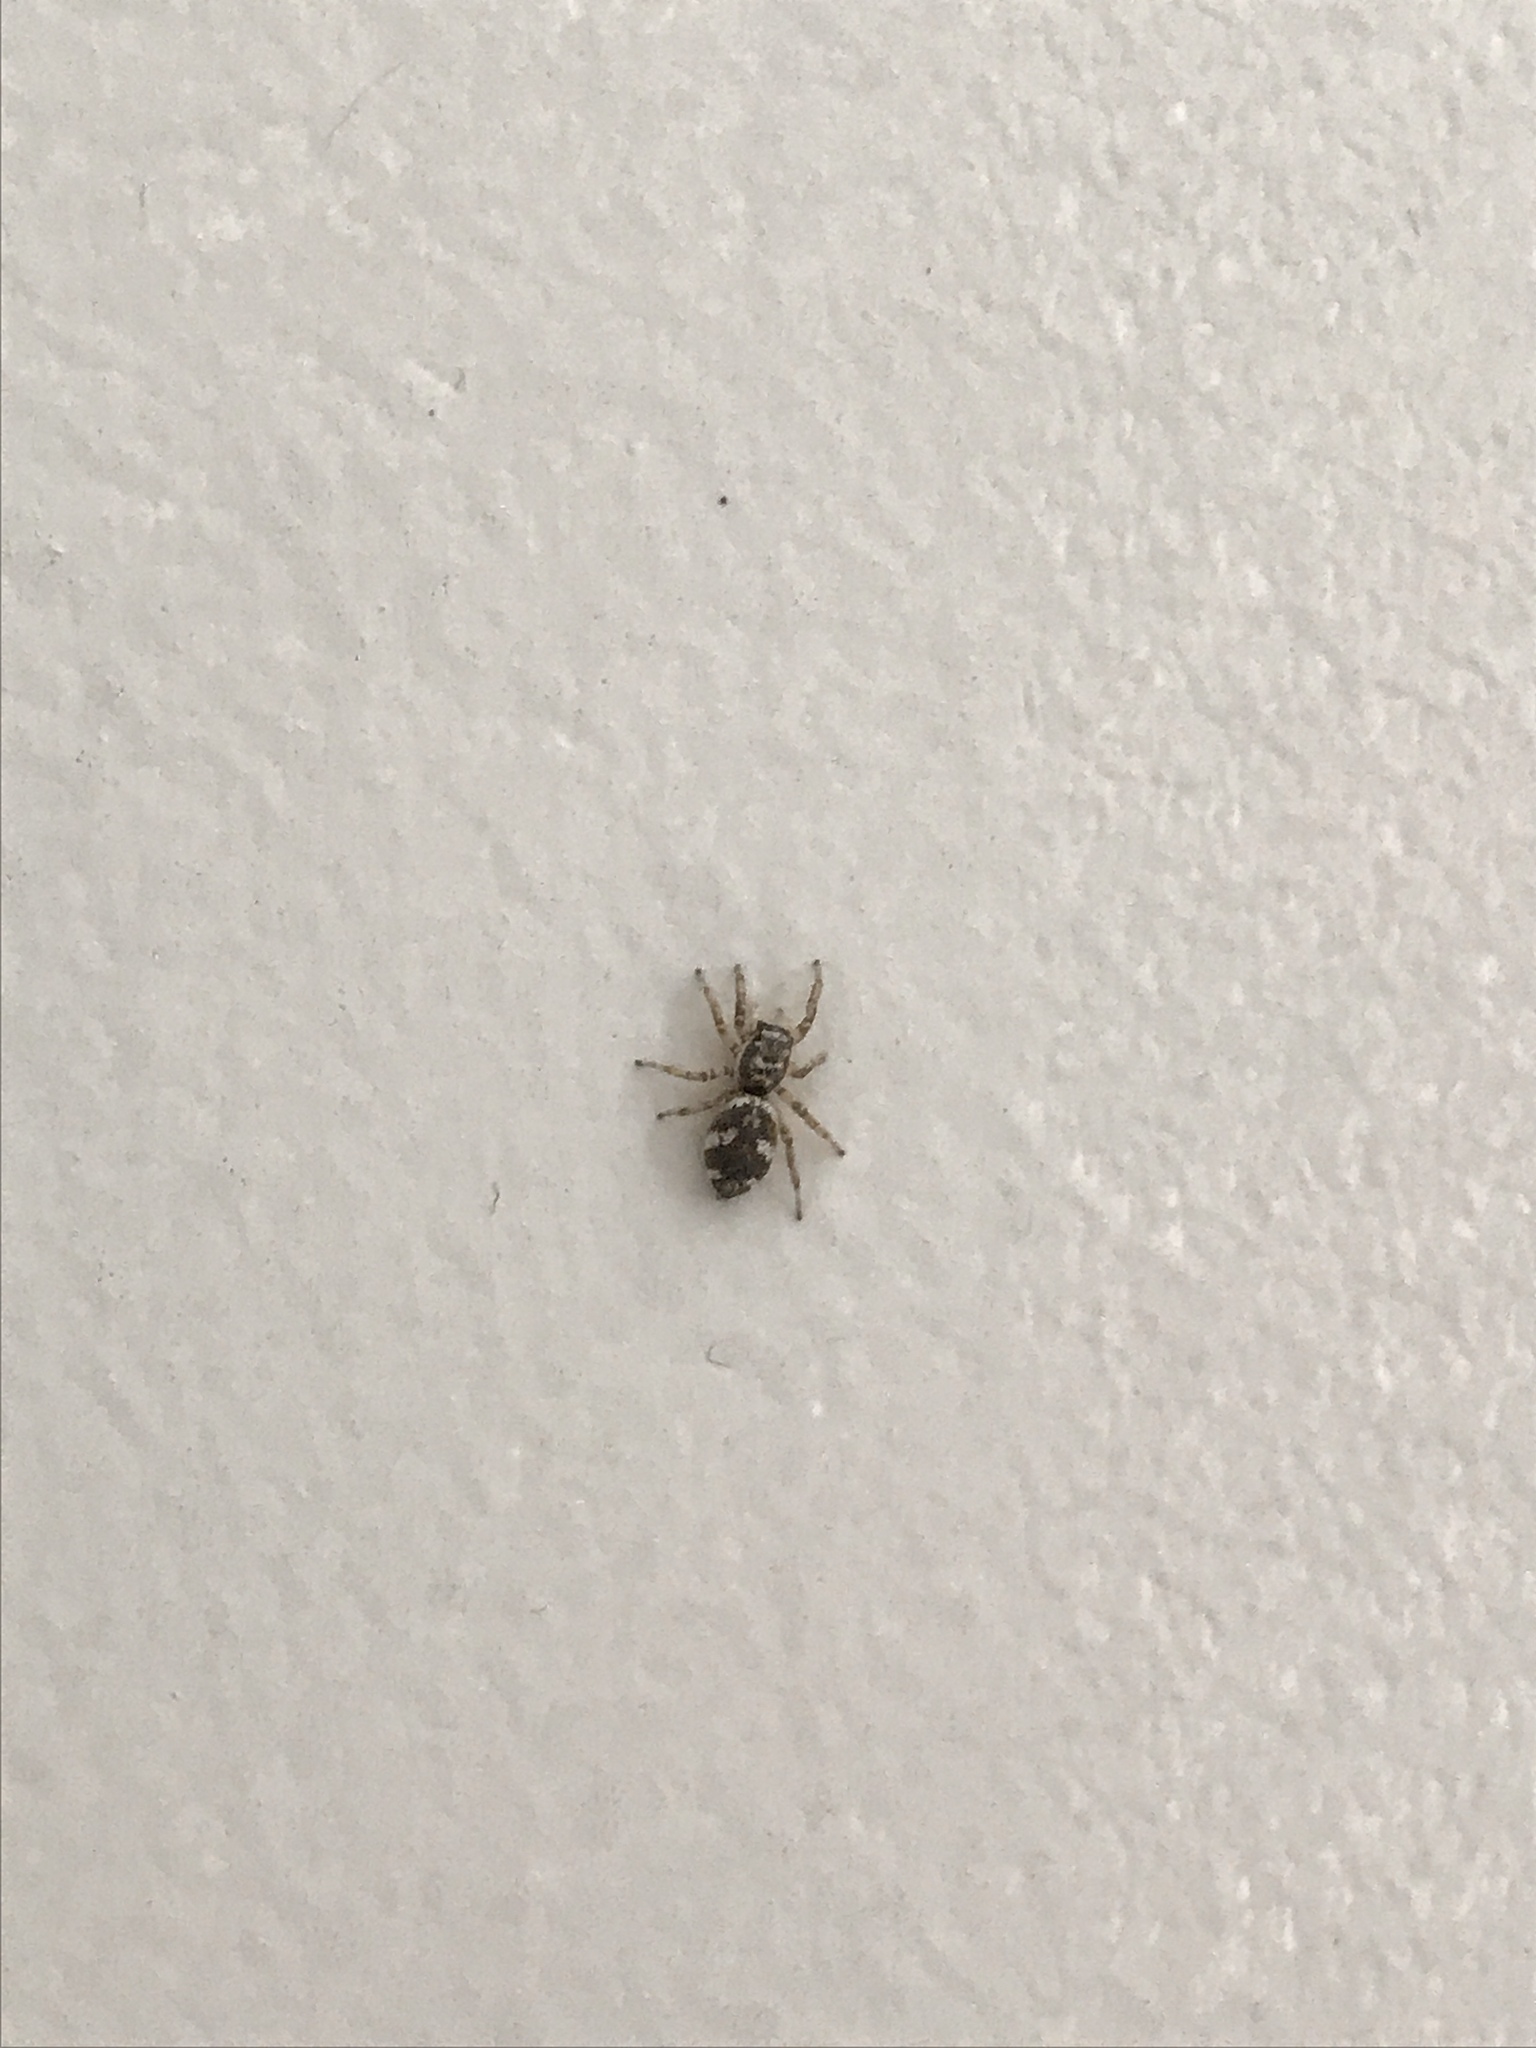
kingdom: Animalia
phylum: Arthropoda
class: Arachnida
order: Araneae
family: Salticidae
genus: Salticus
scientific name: Salticus scenicus
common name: Zebra jumper
